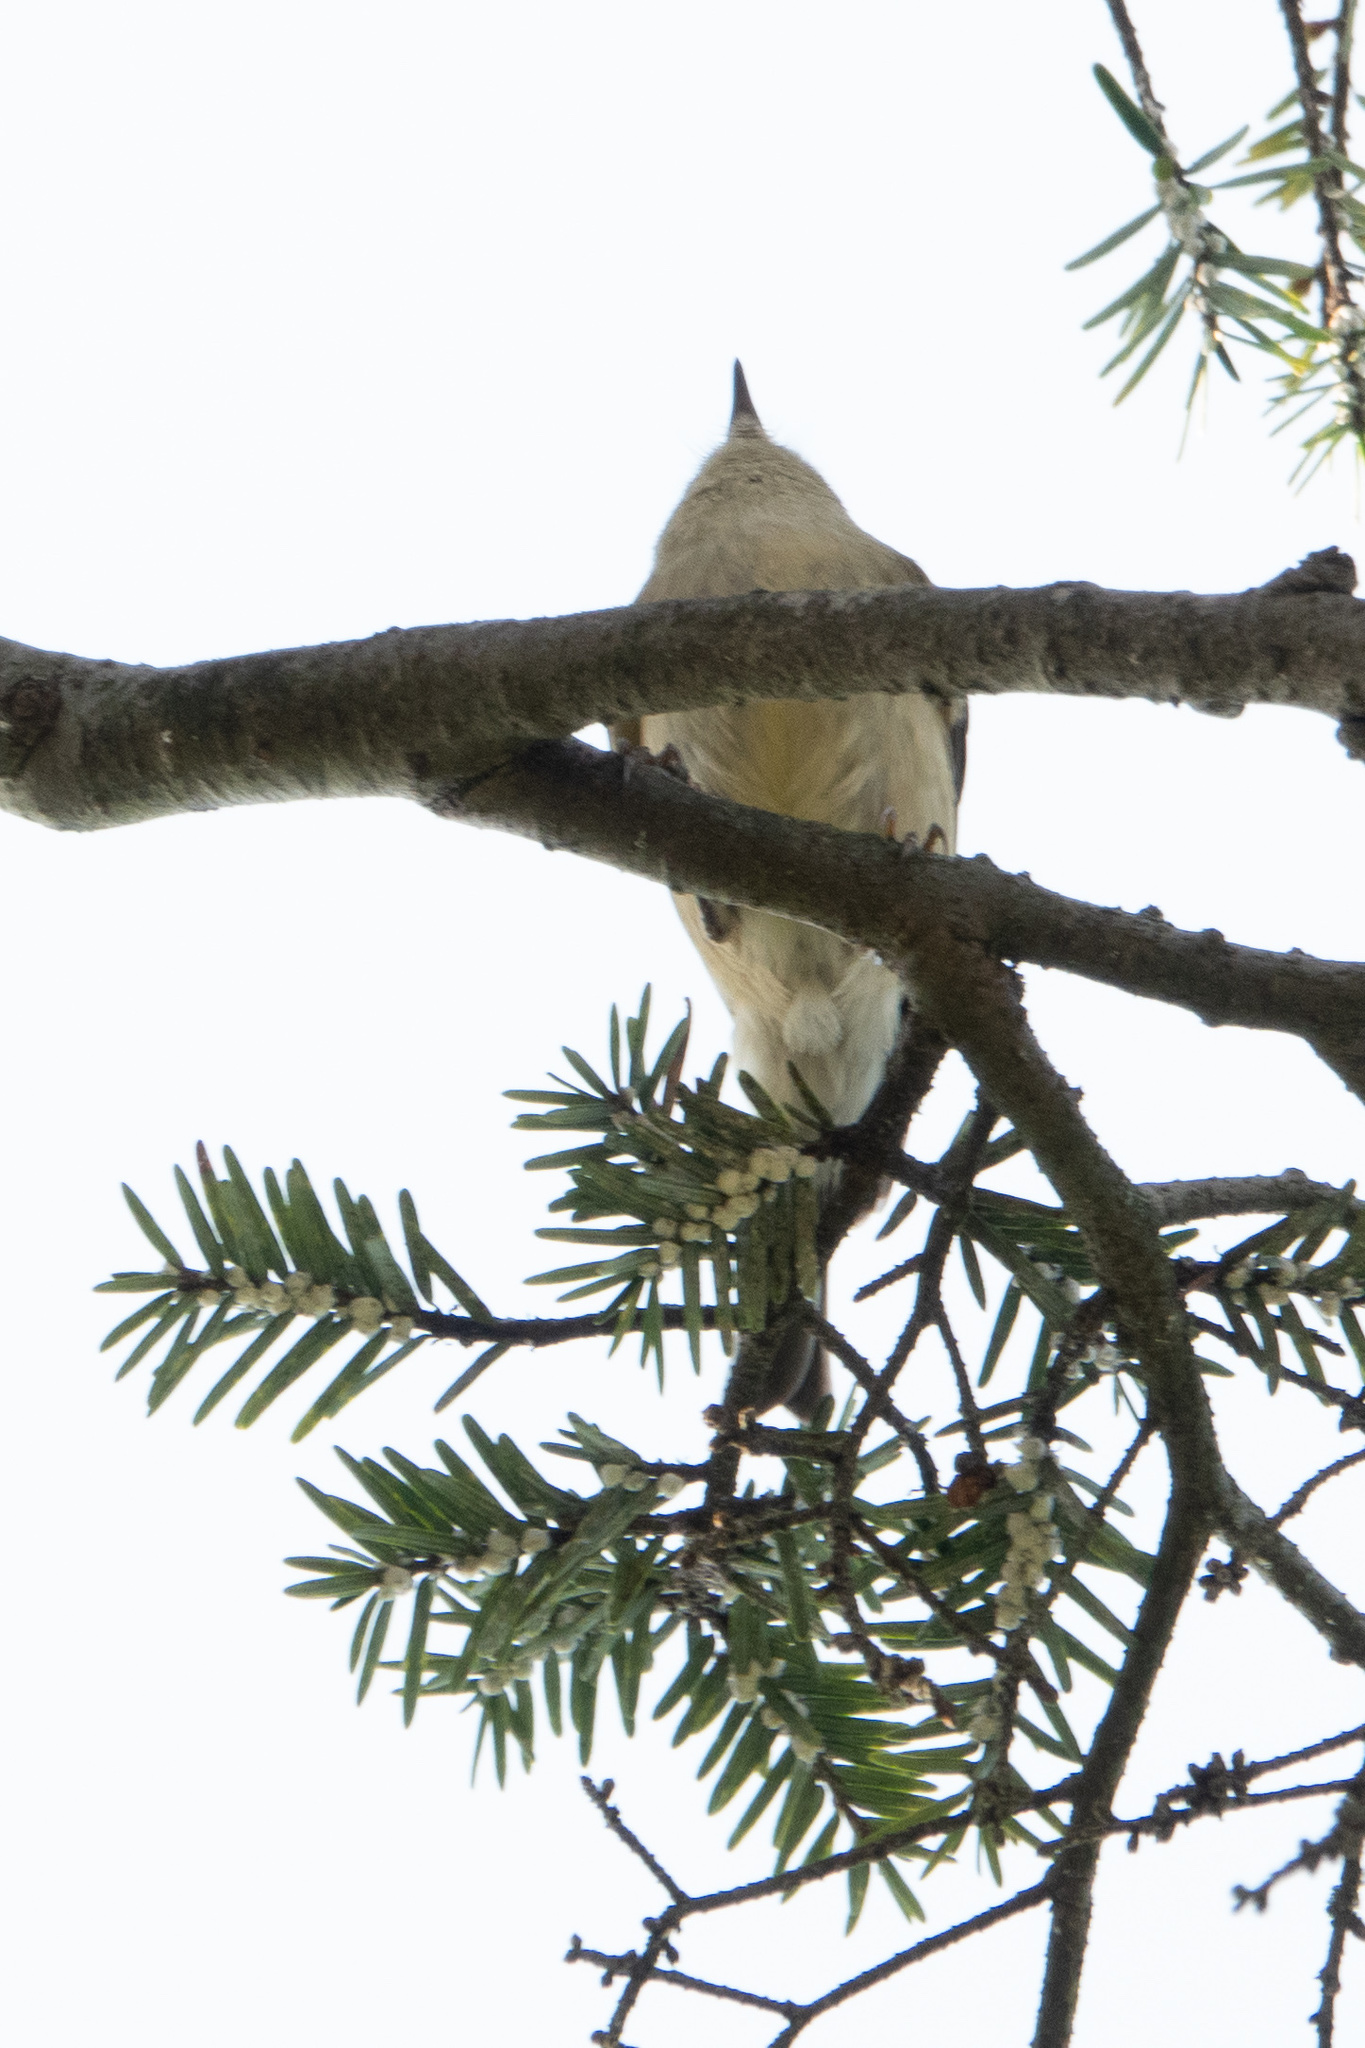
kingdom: Animalia
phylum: Chordata
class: Aves
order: Passeriformes
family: Regulidae
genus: Regulus
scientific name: Regulus calendula
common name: Ruby-crowned kinglet
